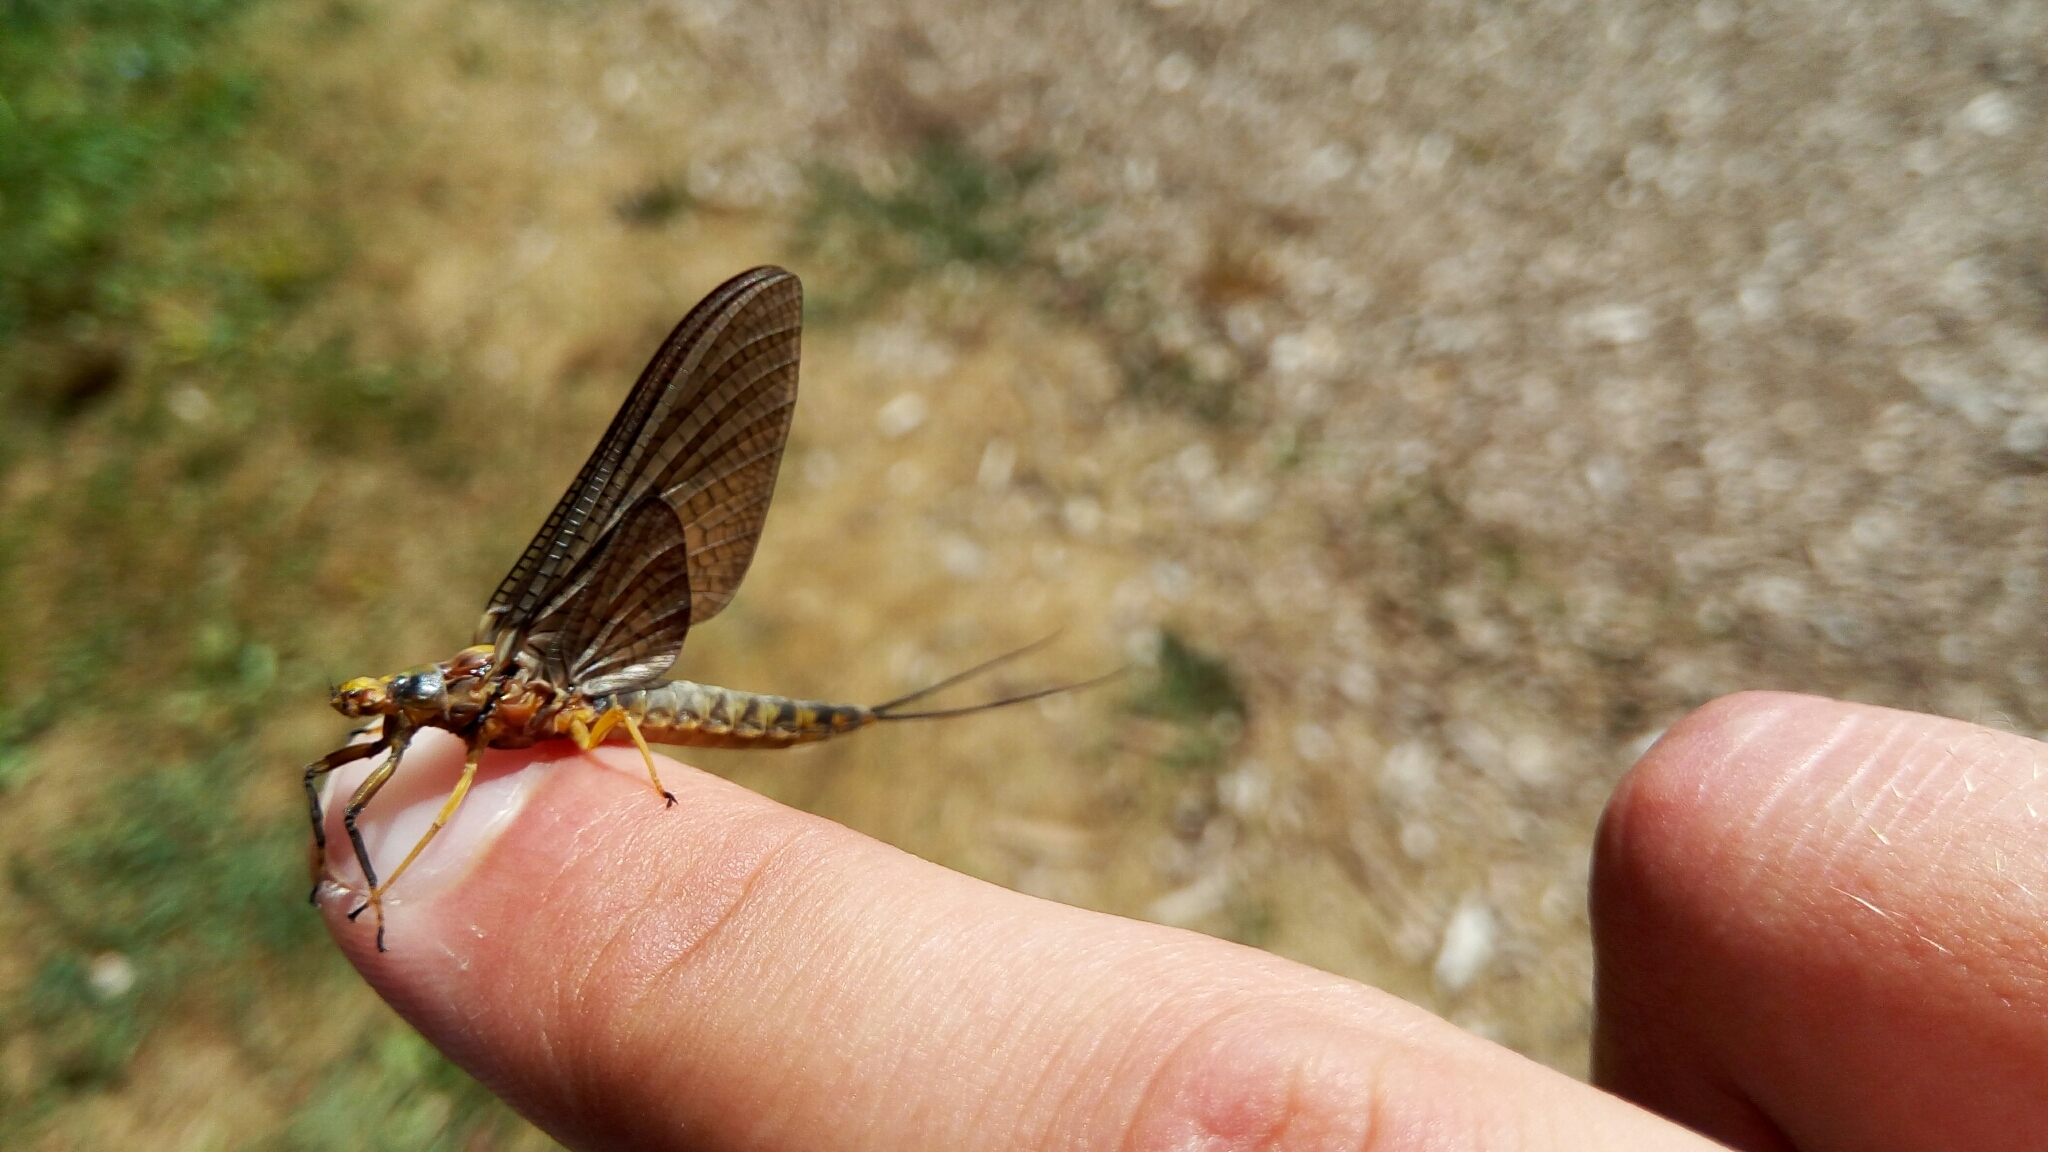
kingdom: Animalia
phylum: Arthropoda
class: Insecta
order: Ephemeroptera
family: Ephemeridae
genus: Hexagenia
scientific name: Hexagenia limbata
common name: Giant mayfly
